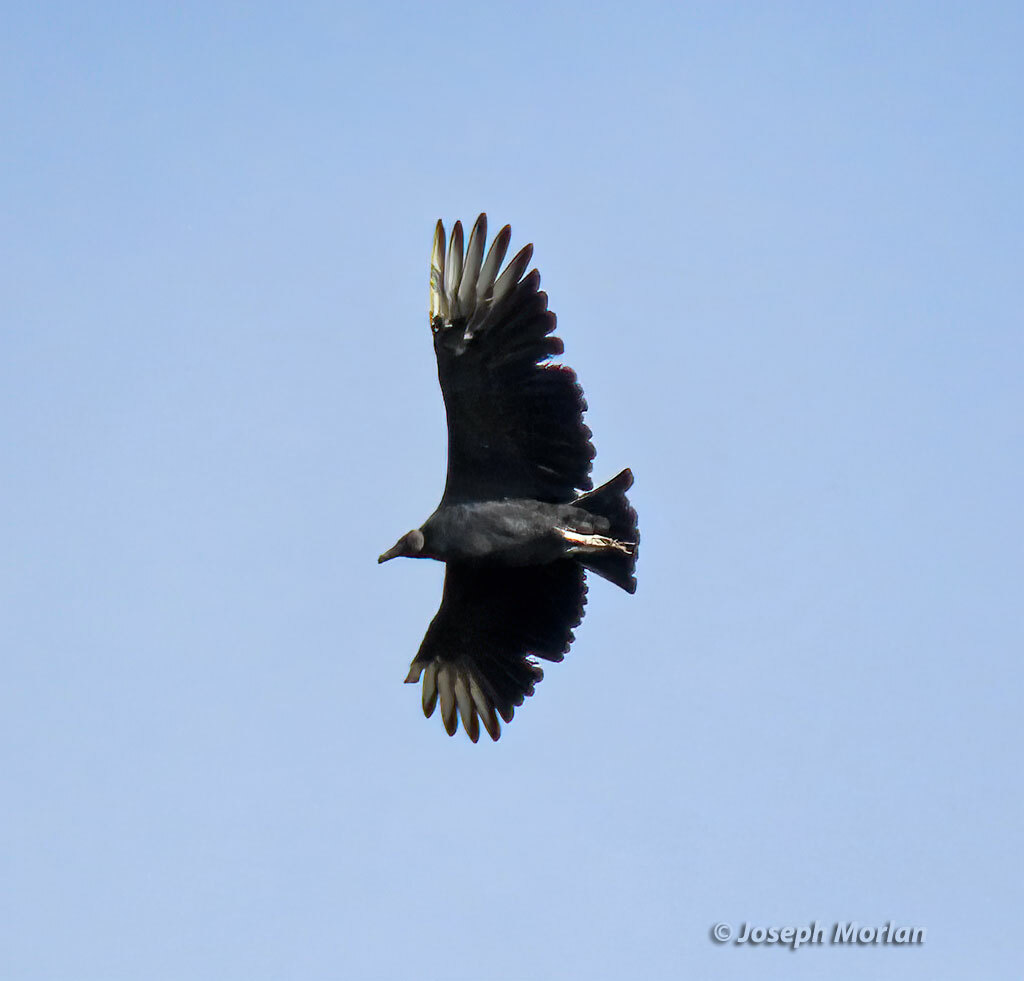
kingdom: Animalia
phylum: Chordata
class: Aves
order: Accipitriformes
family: Cathartidae
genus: Coragyps
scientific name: Coragyps atratus
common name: Black vulture
